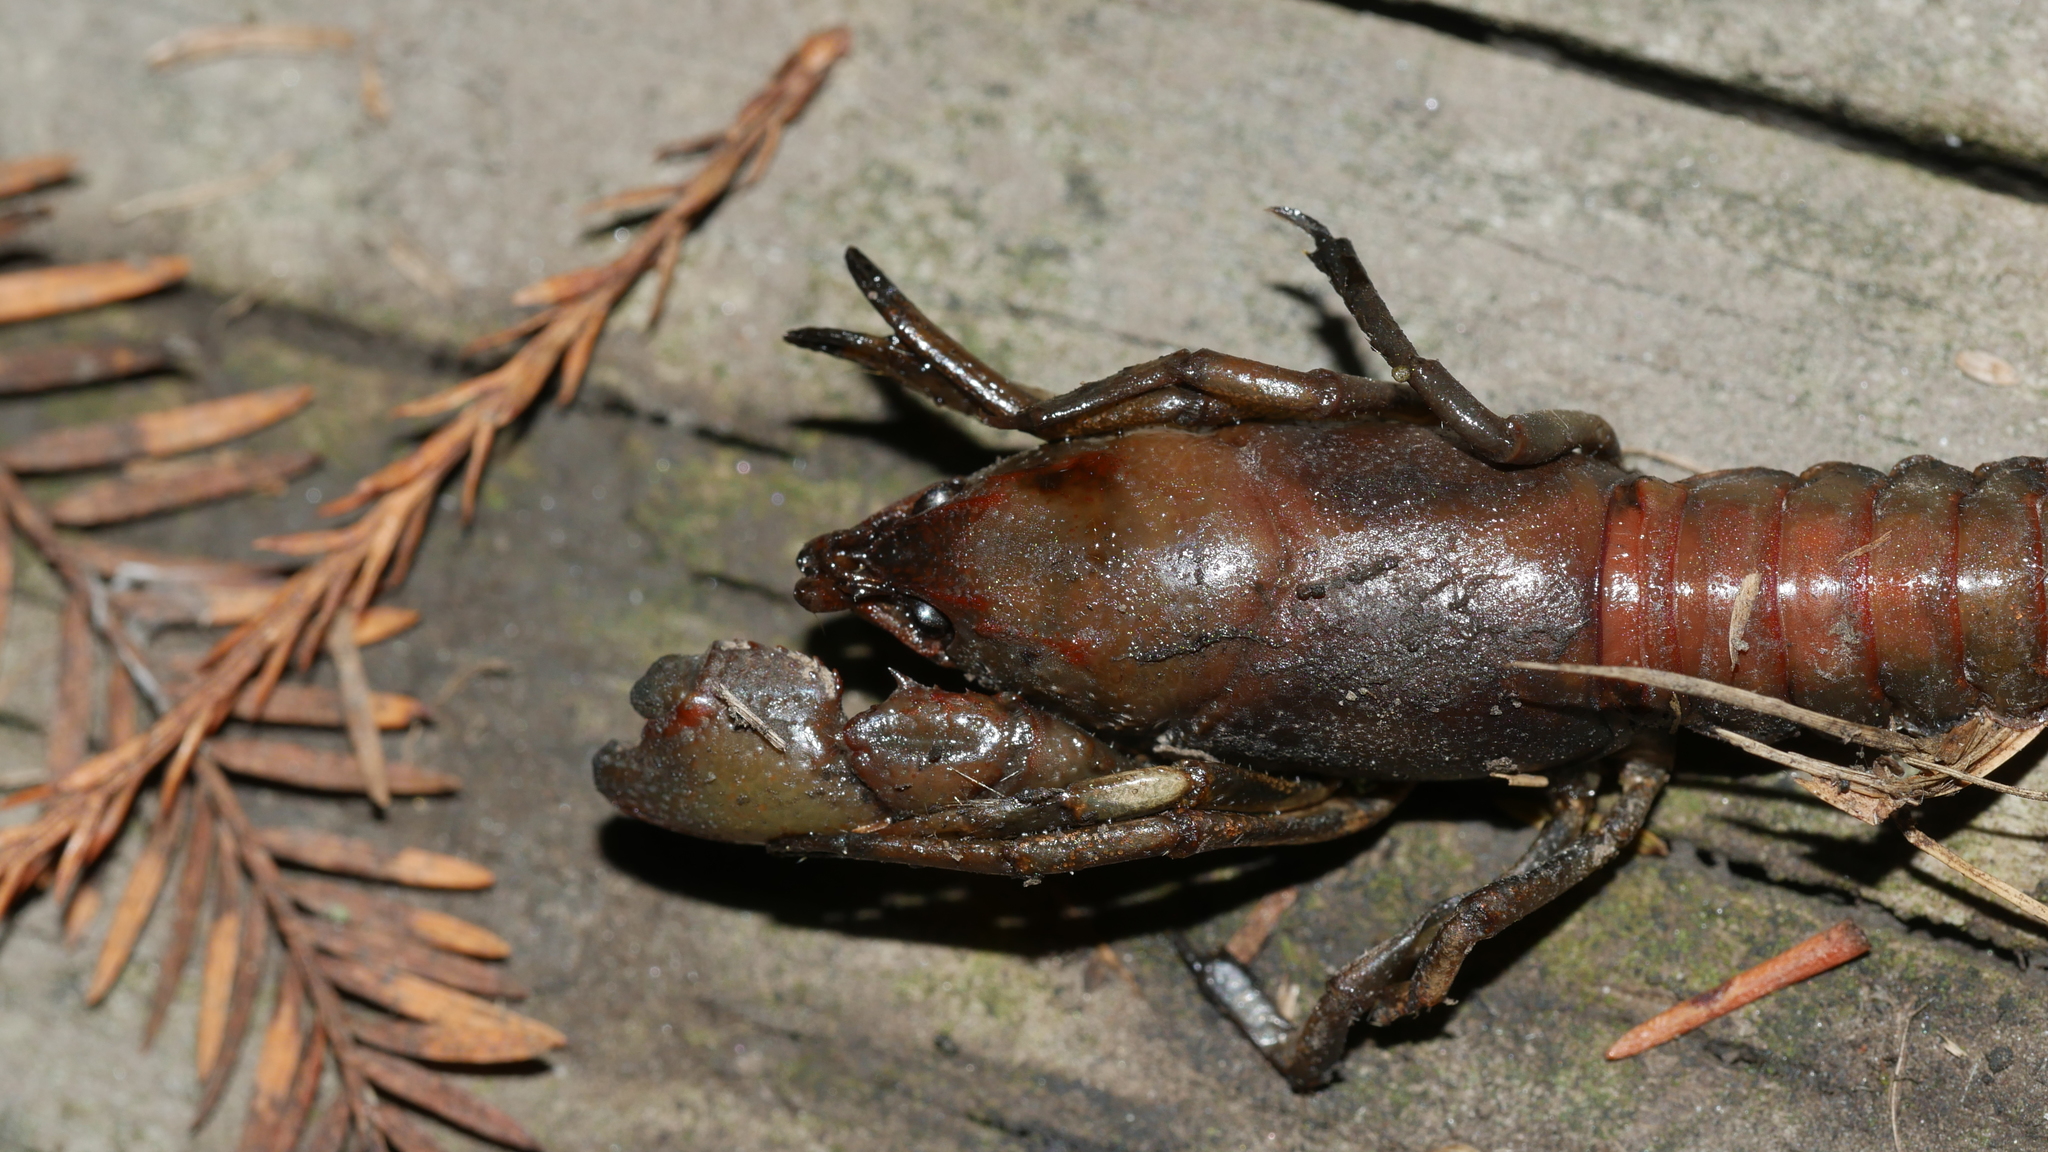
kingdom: Animalia
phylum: Arthropoda
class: Malacostraca
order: Decapoda
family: Cambaridae
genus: Lacunicambarus
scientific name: Lacunicambarus diogenes
